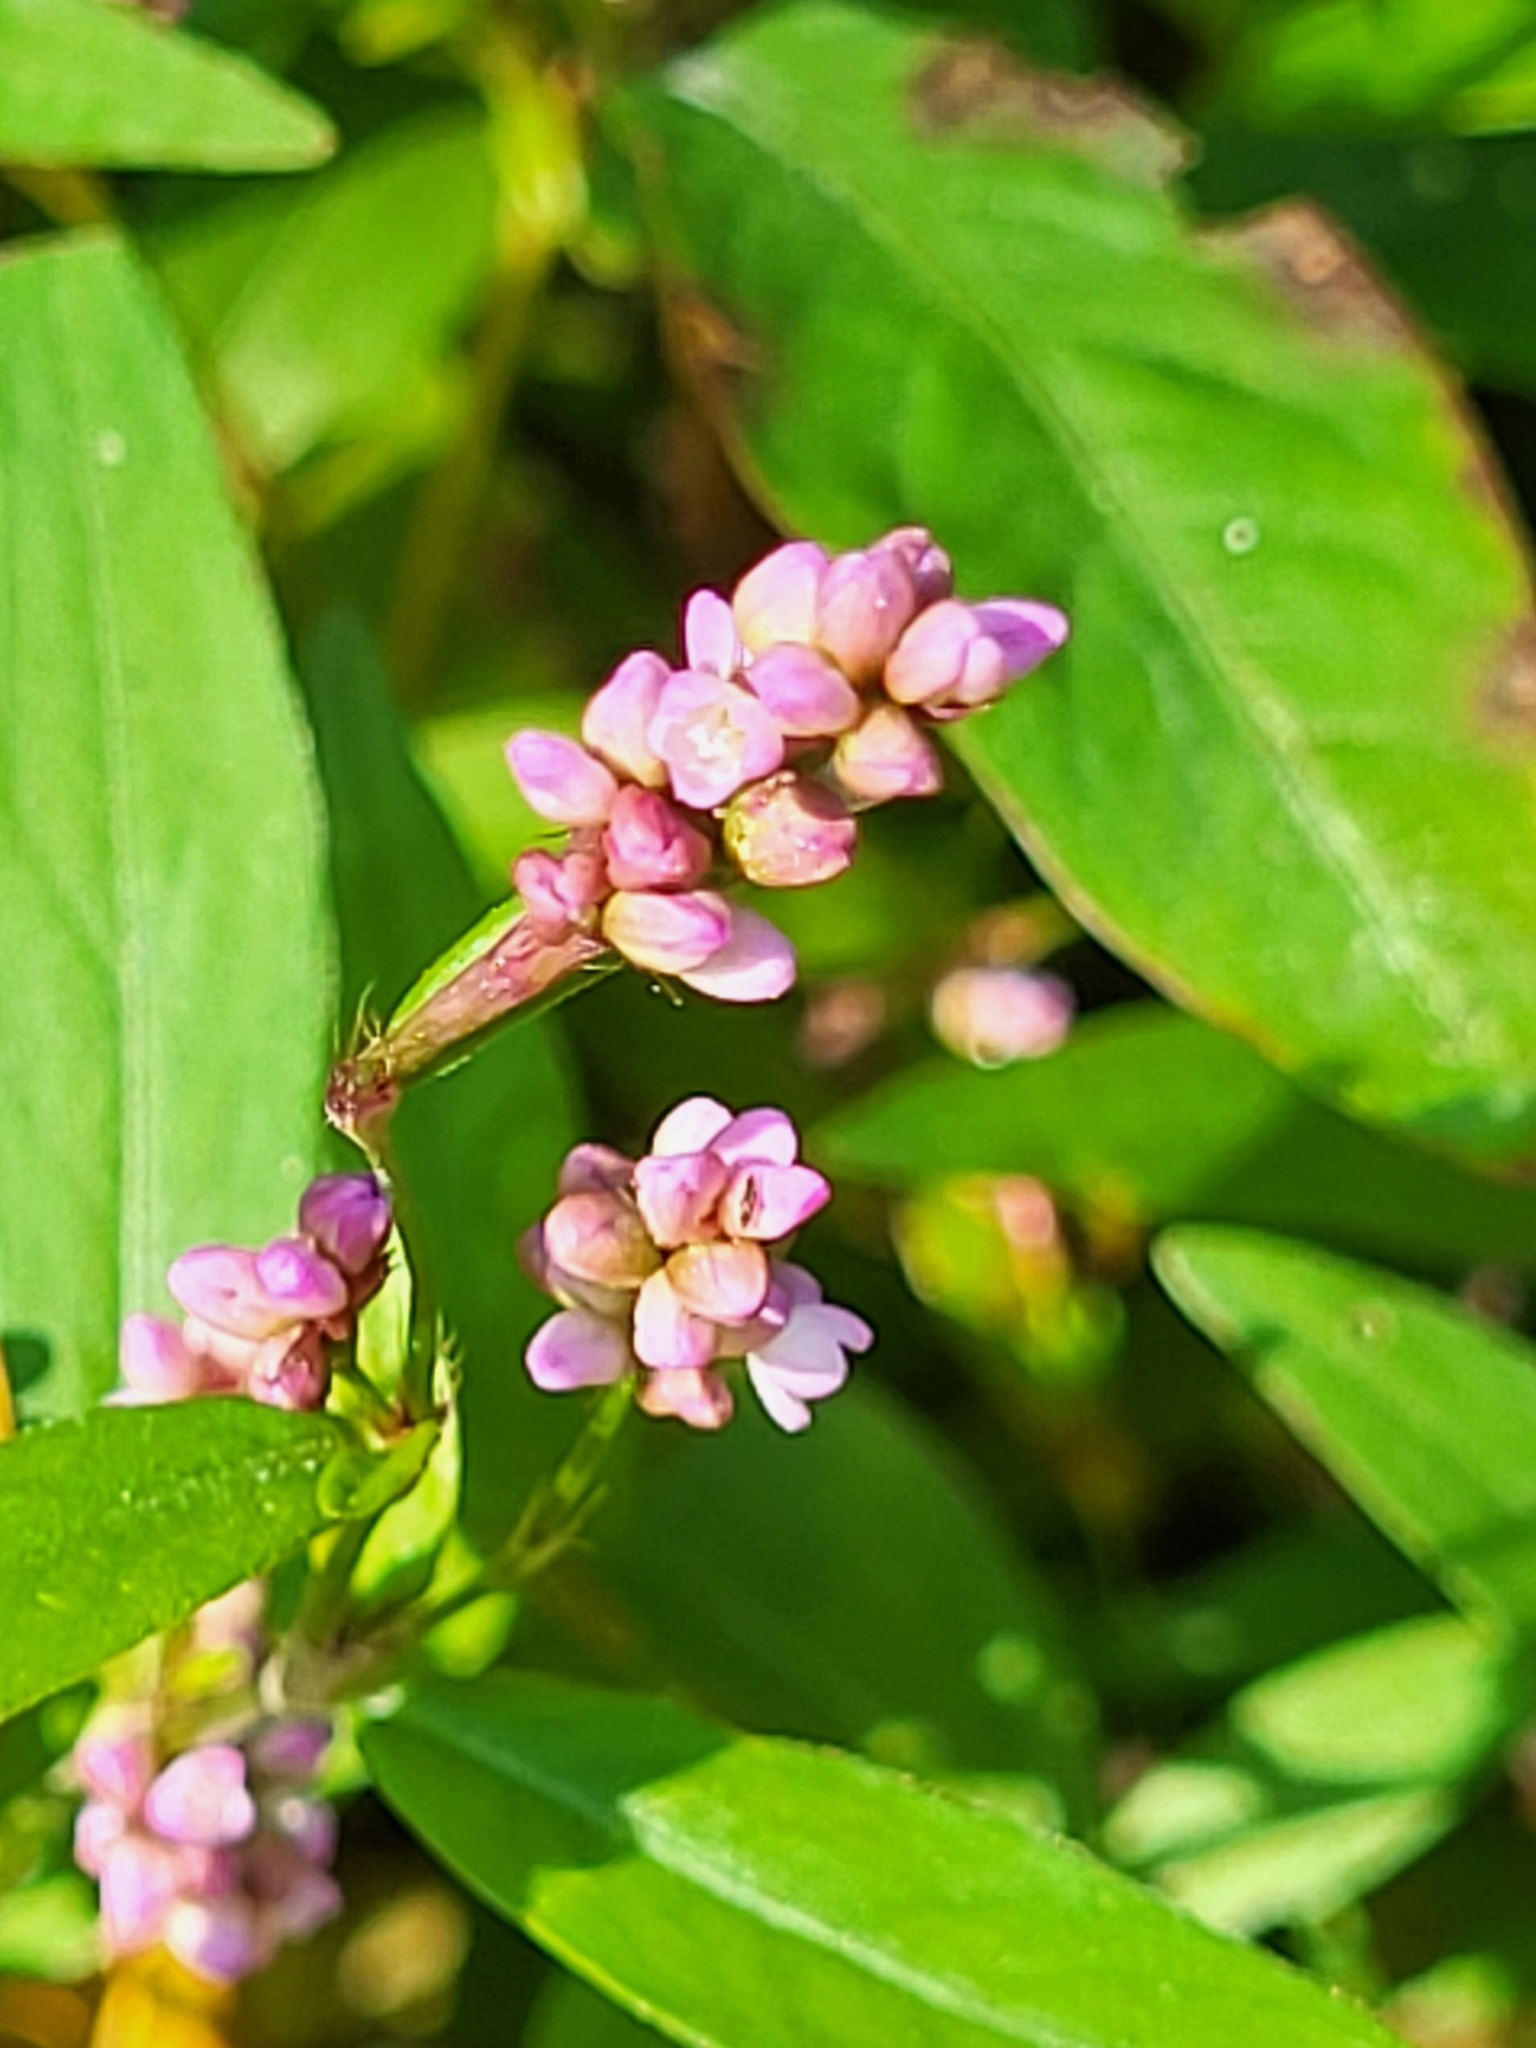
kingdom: Plantae
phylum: Tracheophyta
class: Magnoliopsida
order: Caryophyllales
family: Polygonaceae
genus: Persicaria
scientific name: Persicaria maculosa
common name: Redshank
